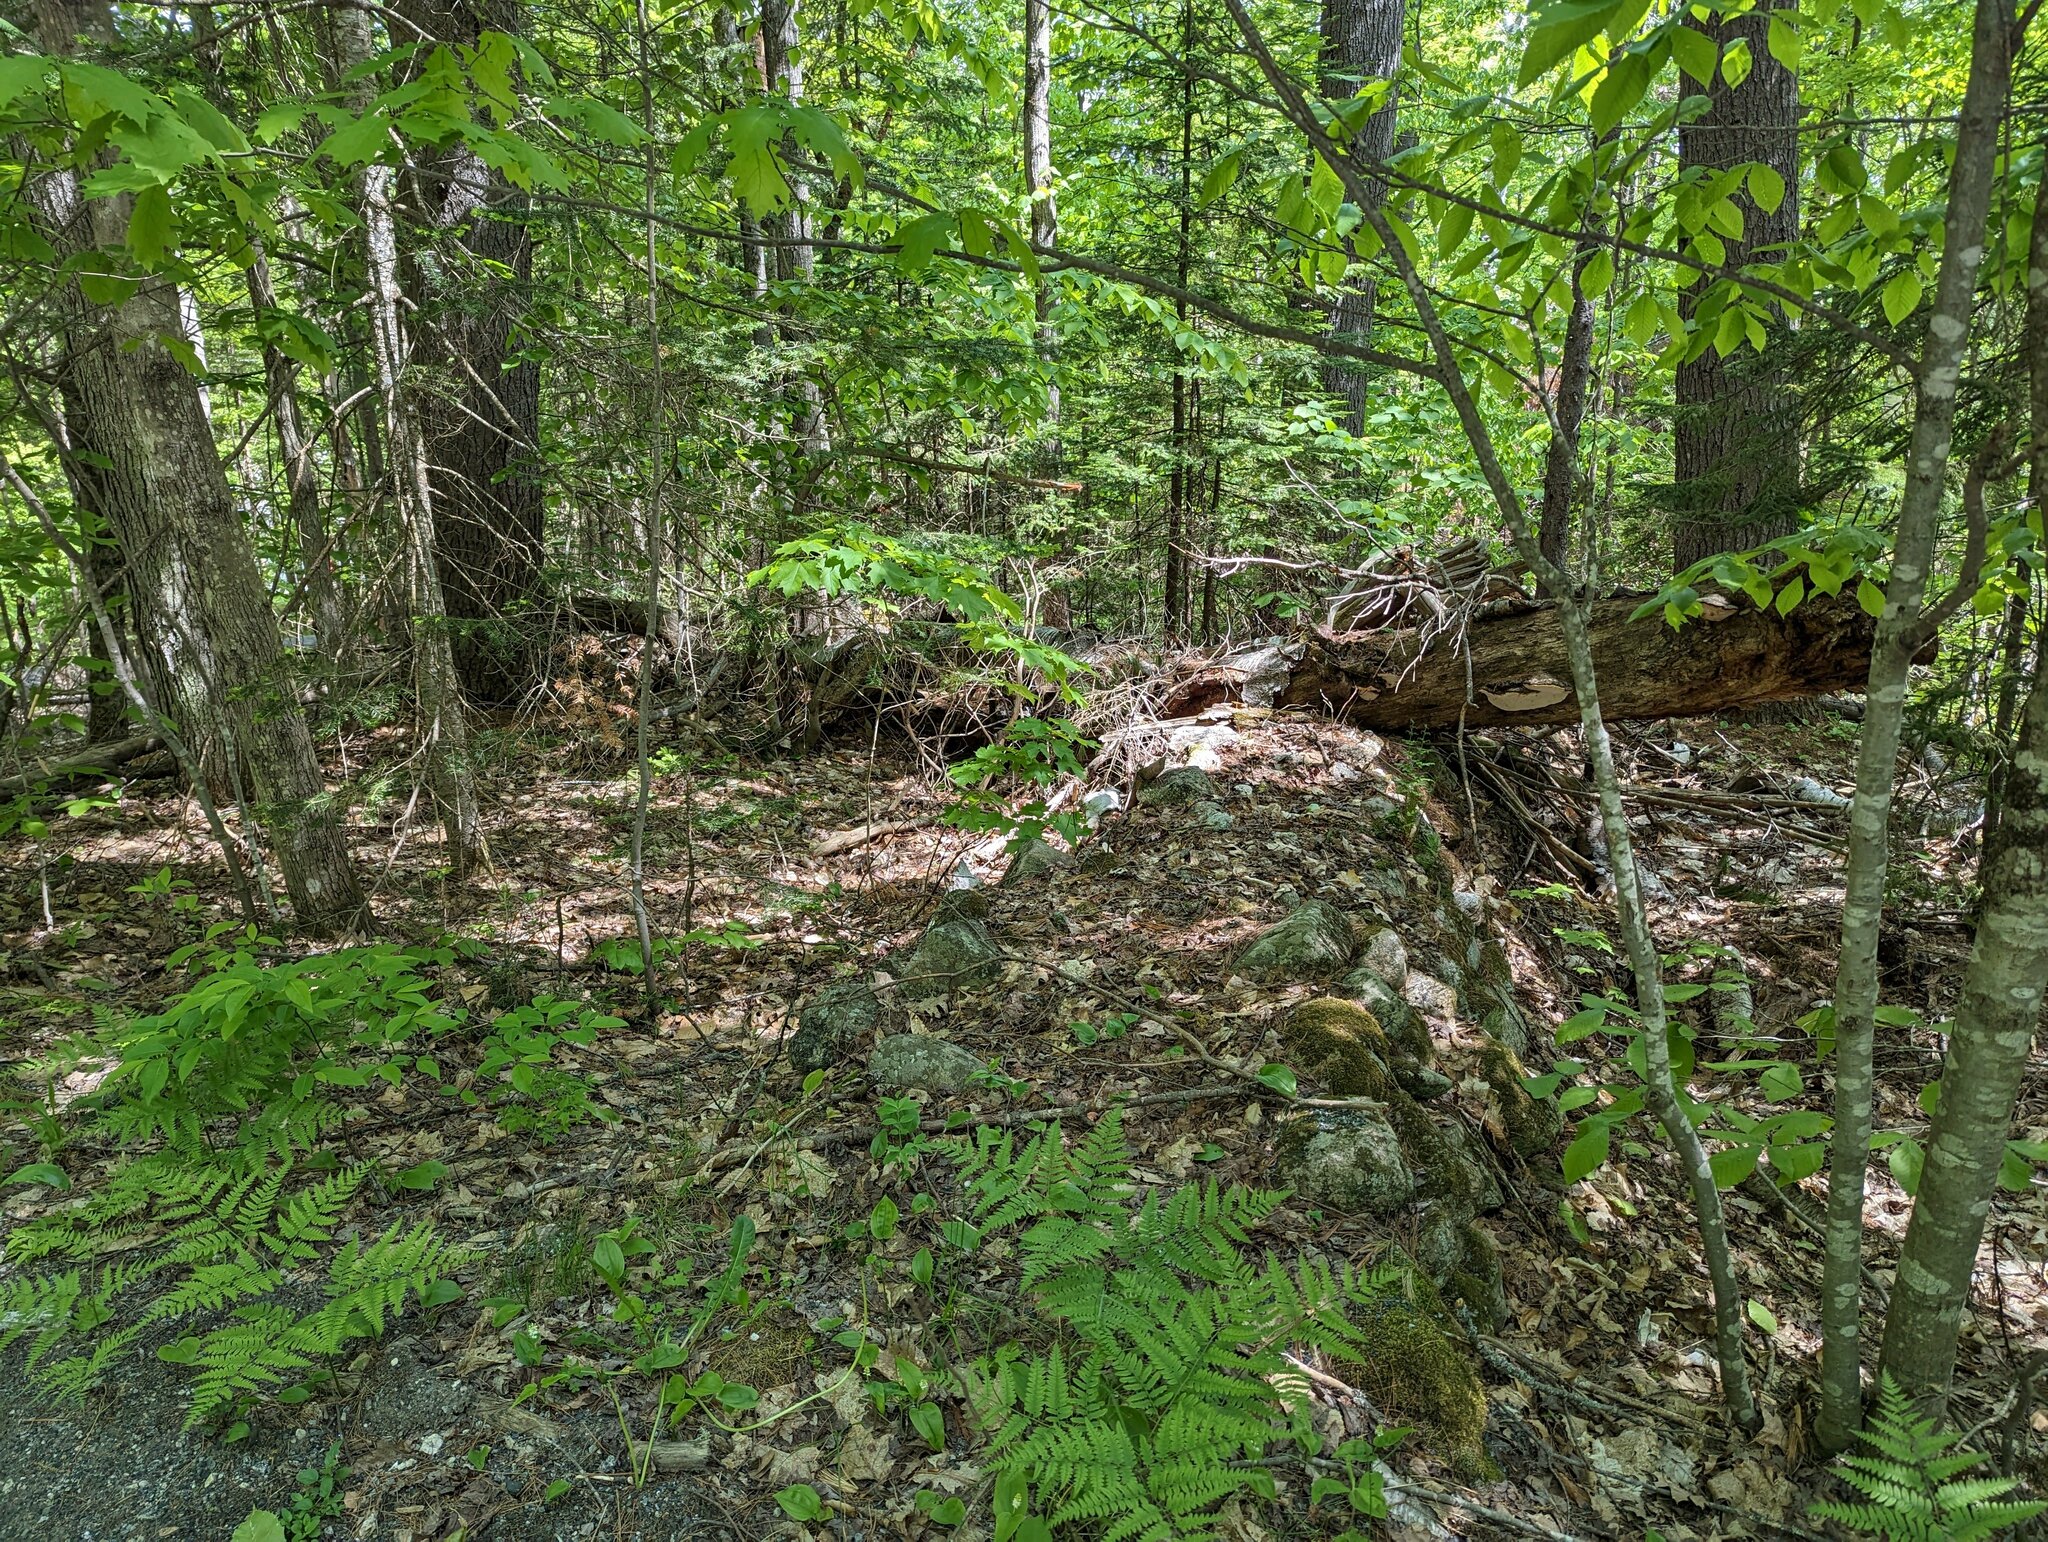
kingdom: Plantae
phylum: Tracheophyta
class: Polypodiopsida
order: Polypodiales
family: Dennstaedtiaceae
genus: Pteridium
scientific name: Pteridium aquilinum
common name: Bracken
